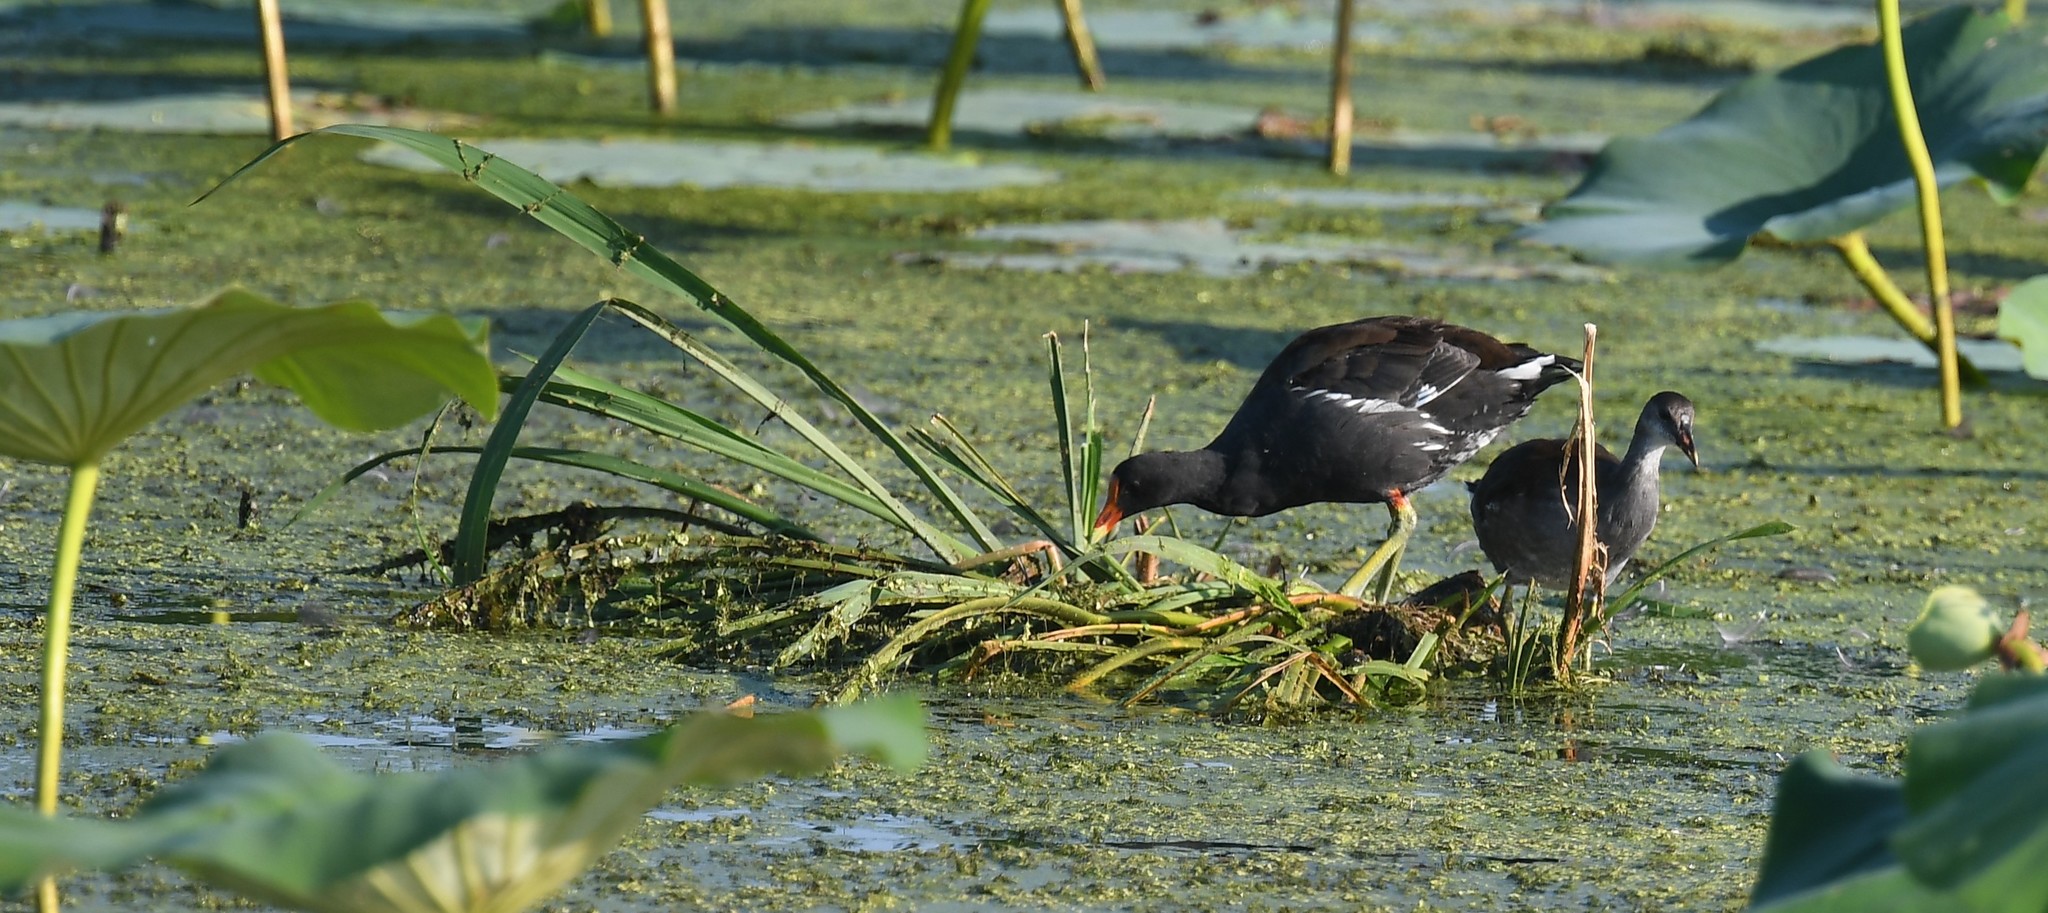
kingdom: Animalia
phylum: Chordata
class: Aves
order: Gruiformes
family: Rallidae
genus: Gallinula
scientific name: Gallinula chloropus
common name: Common moorhen
